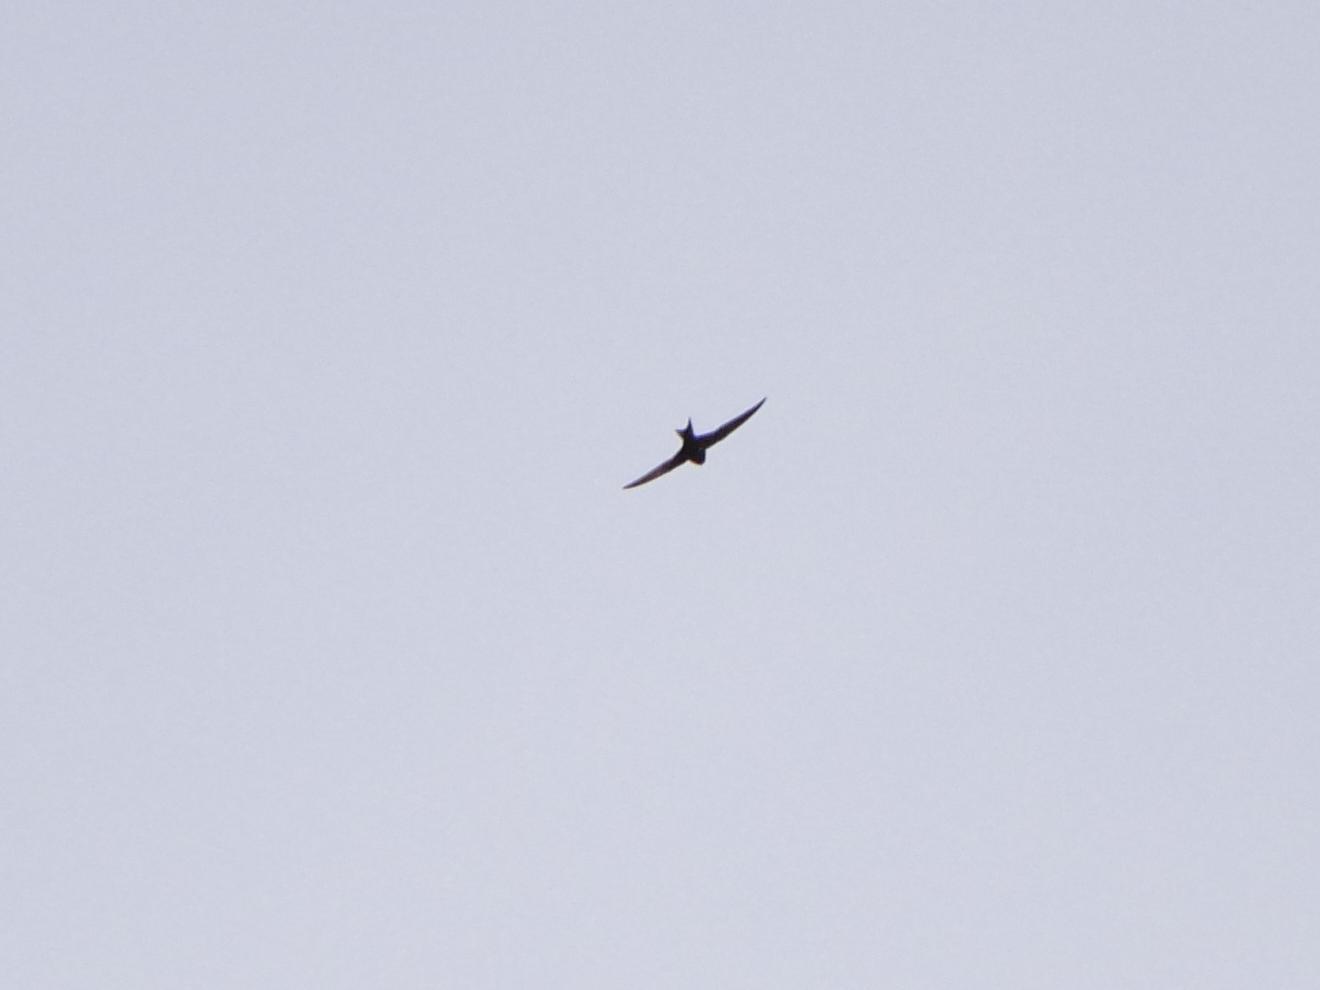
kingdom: Animalia
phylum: Chordata
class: Aves
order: Apodiformes
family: Apodidae
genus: Apus
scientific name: Apus apus
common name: Common swift
